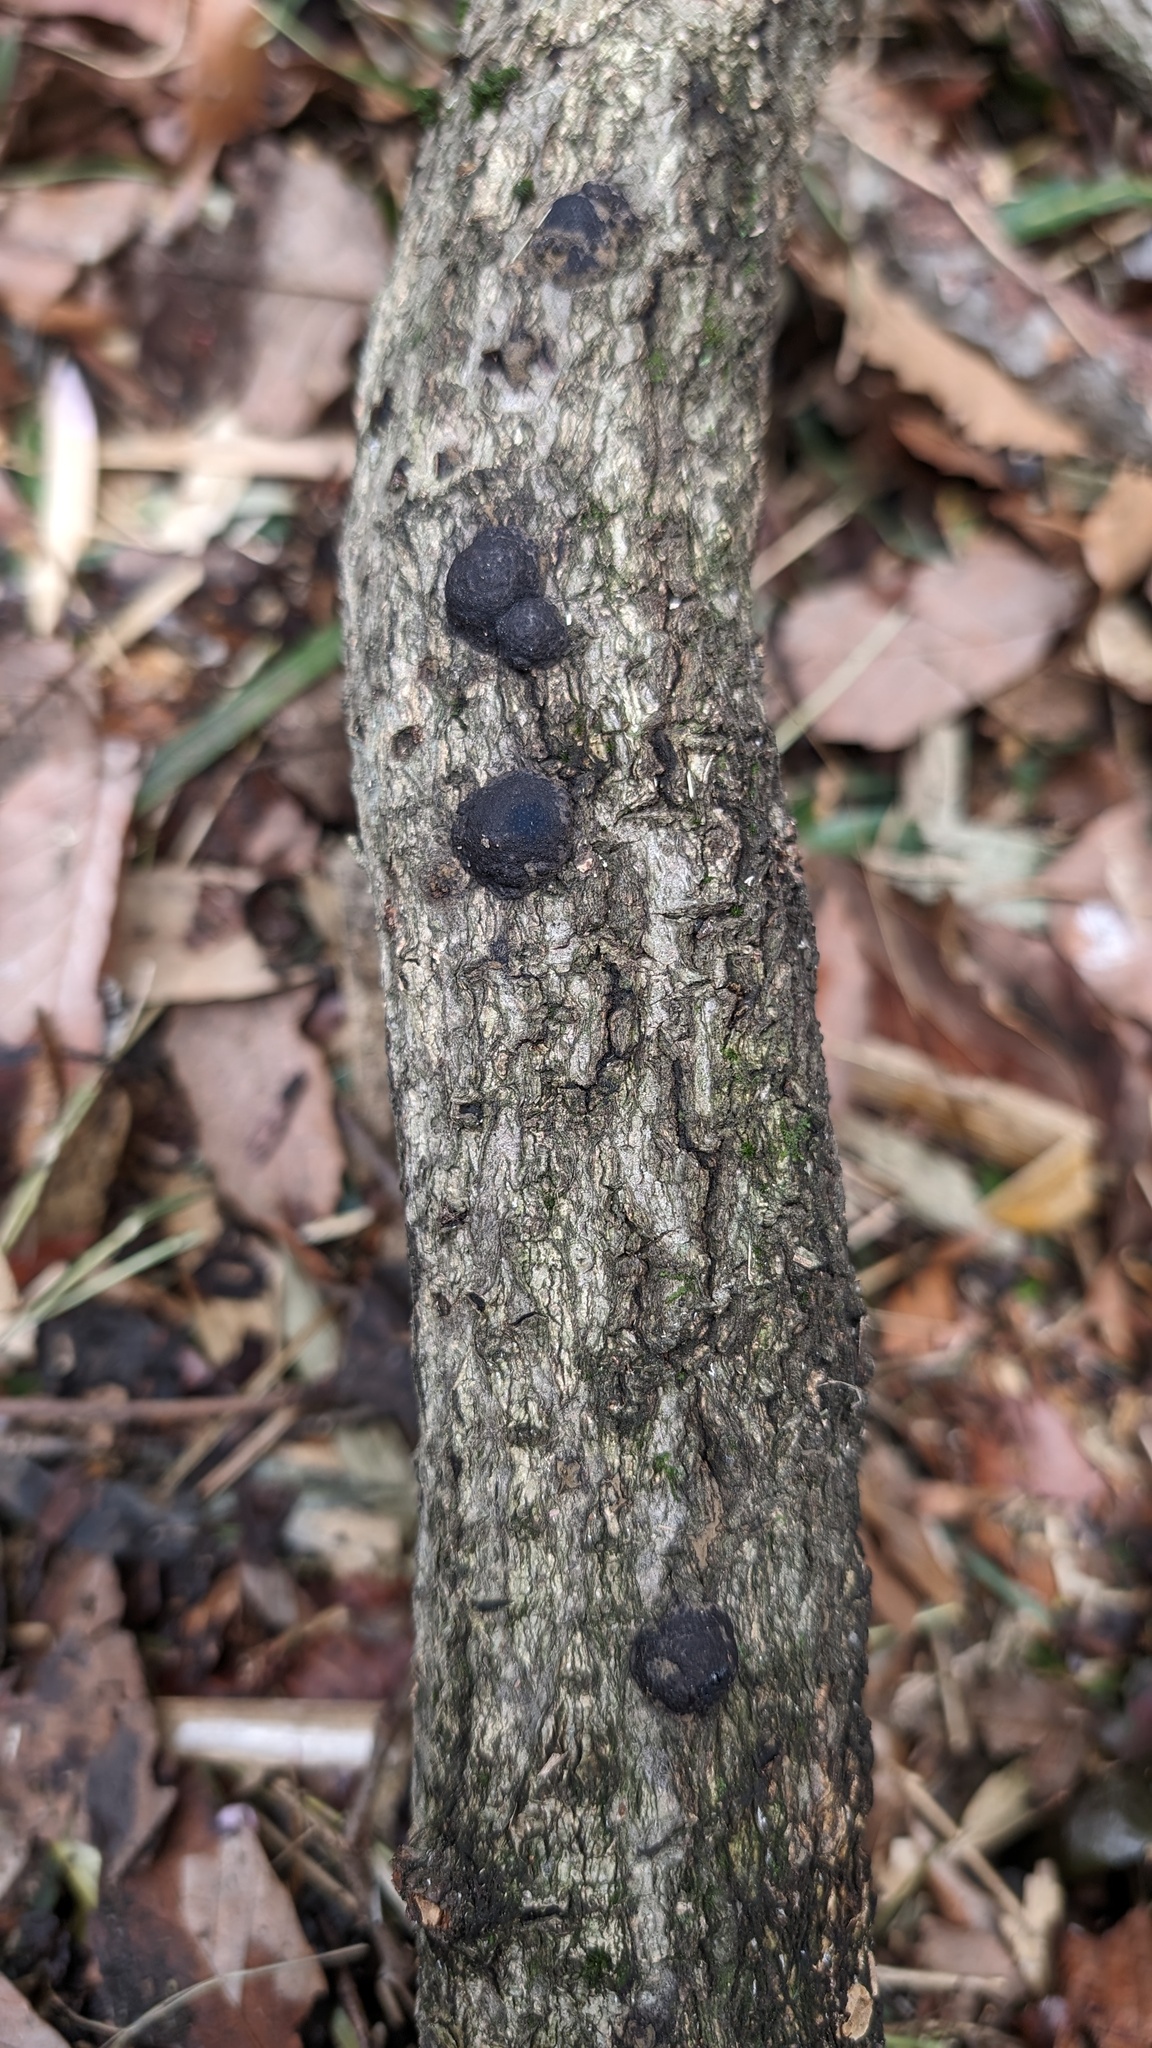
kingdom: Fungi
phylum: Ascomycota
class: Sordariomycetes
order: Xylariales
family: Hypoxylaceae
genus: Annulohypoxylon
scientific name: Annulohypoxylon truncatum
